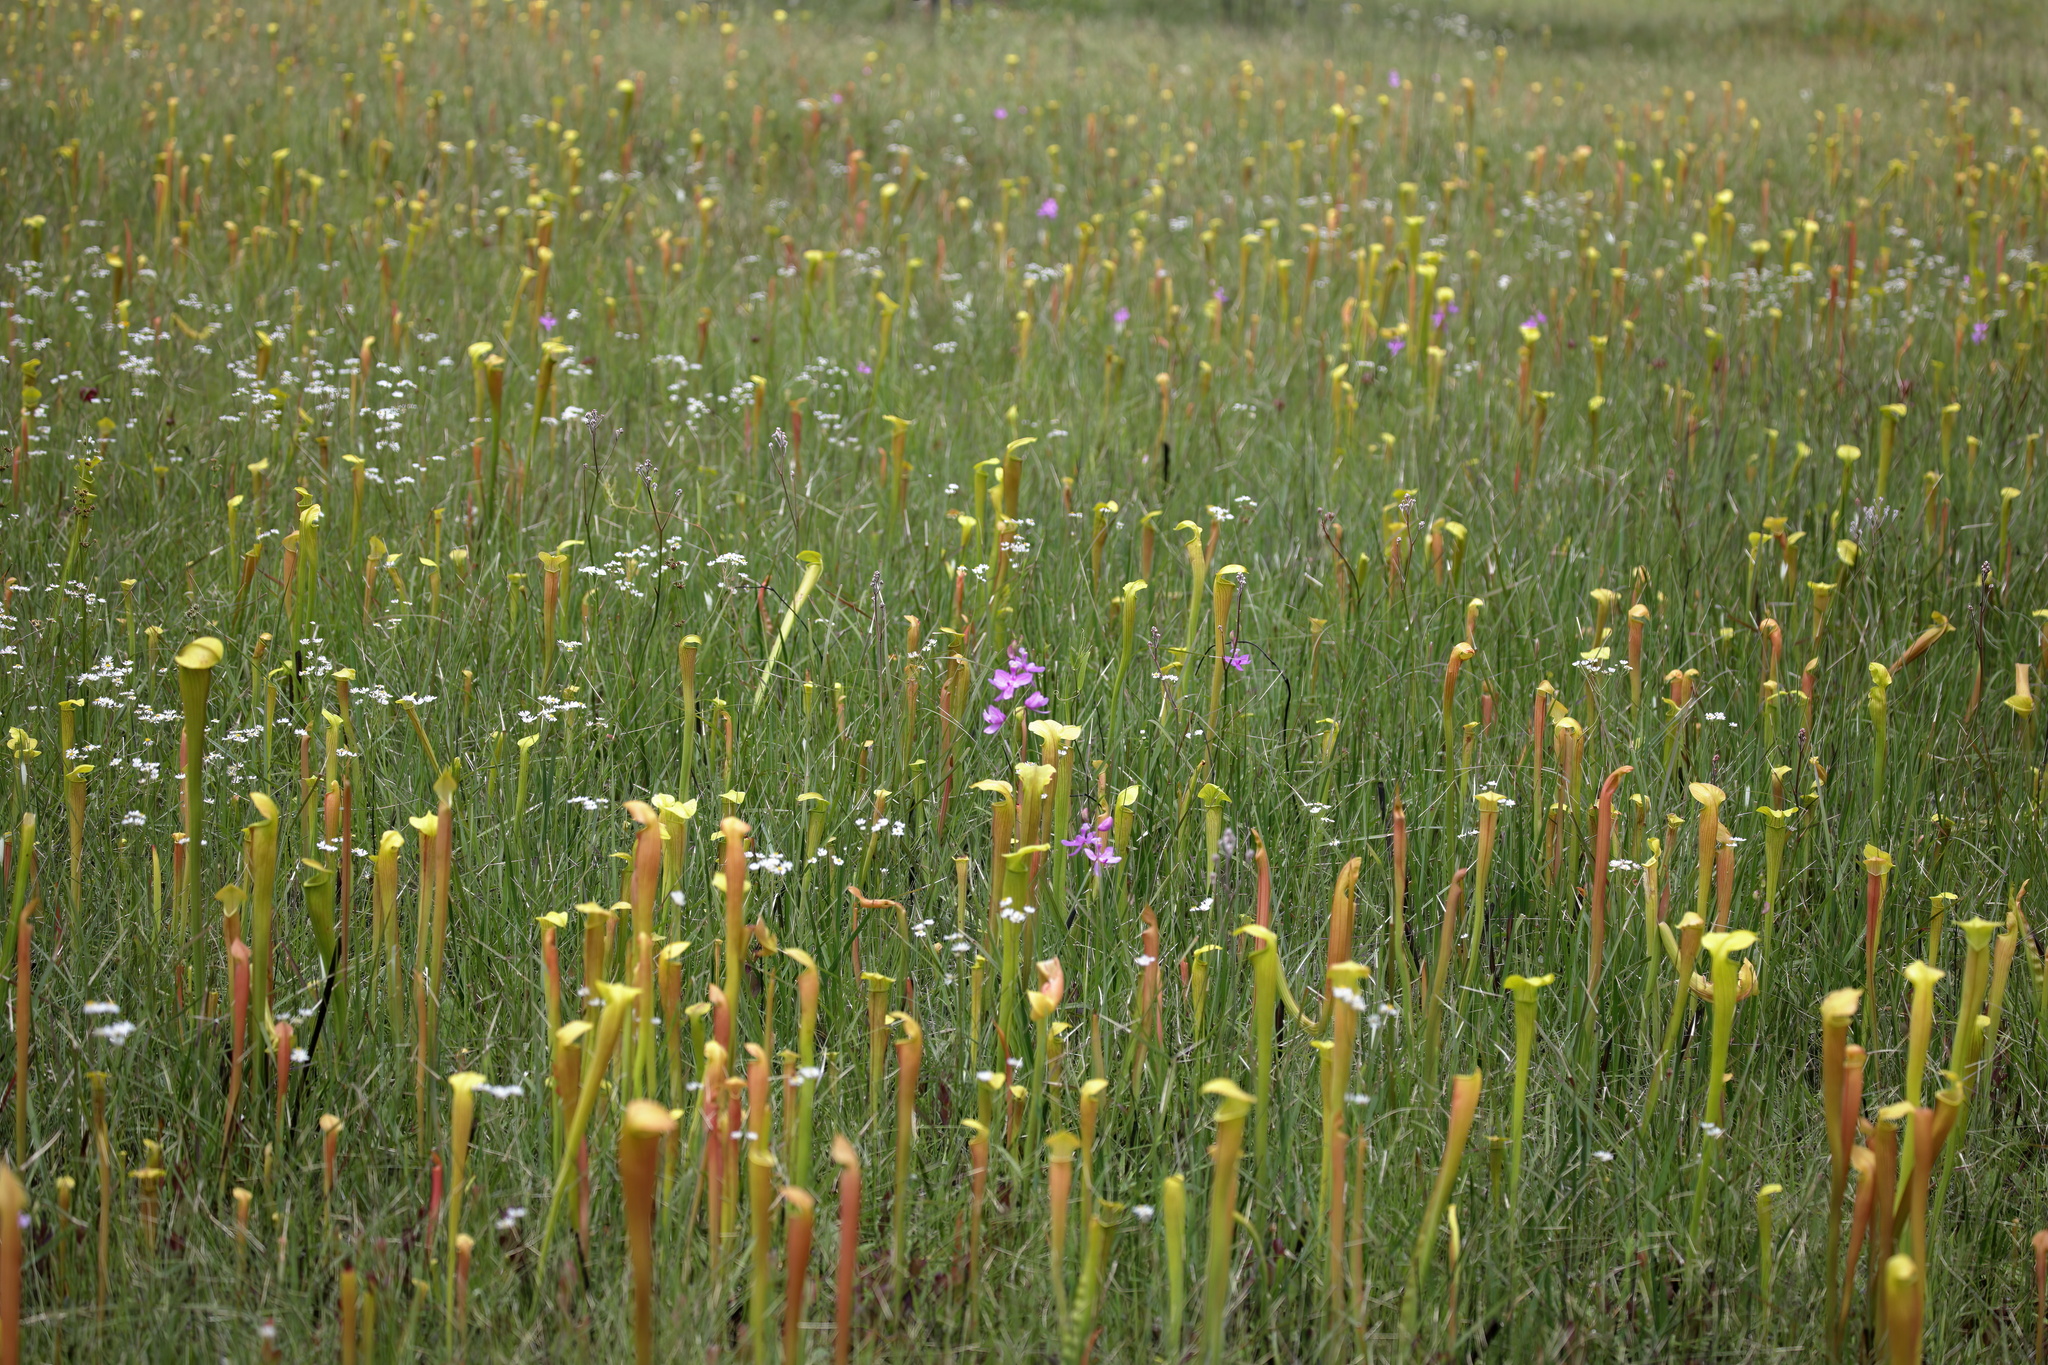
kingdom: Plantae
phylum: Tracheophyta
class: Magnoliopsida
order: Ericales
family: Sarraceniaceae
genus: Sarracenia
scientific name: Sarracenia alata
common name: Yellow trumpets
